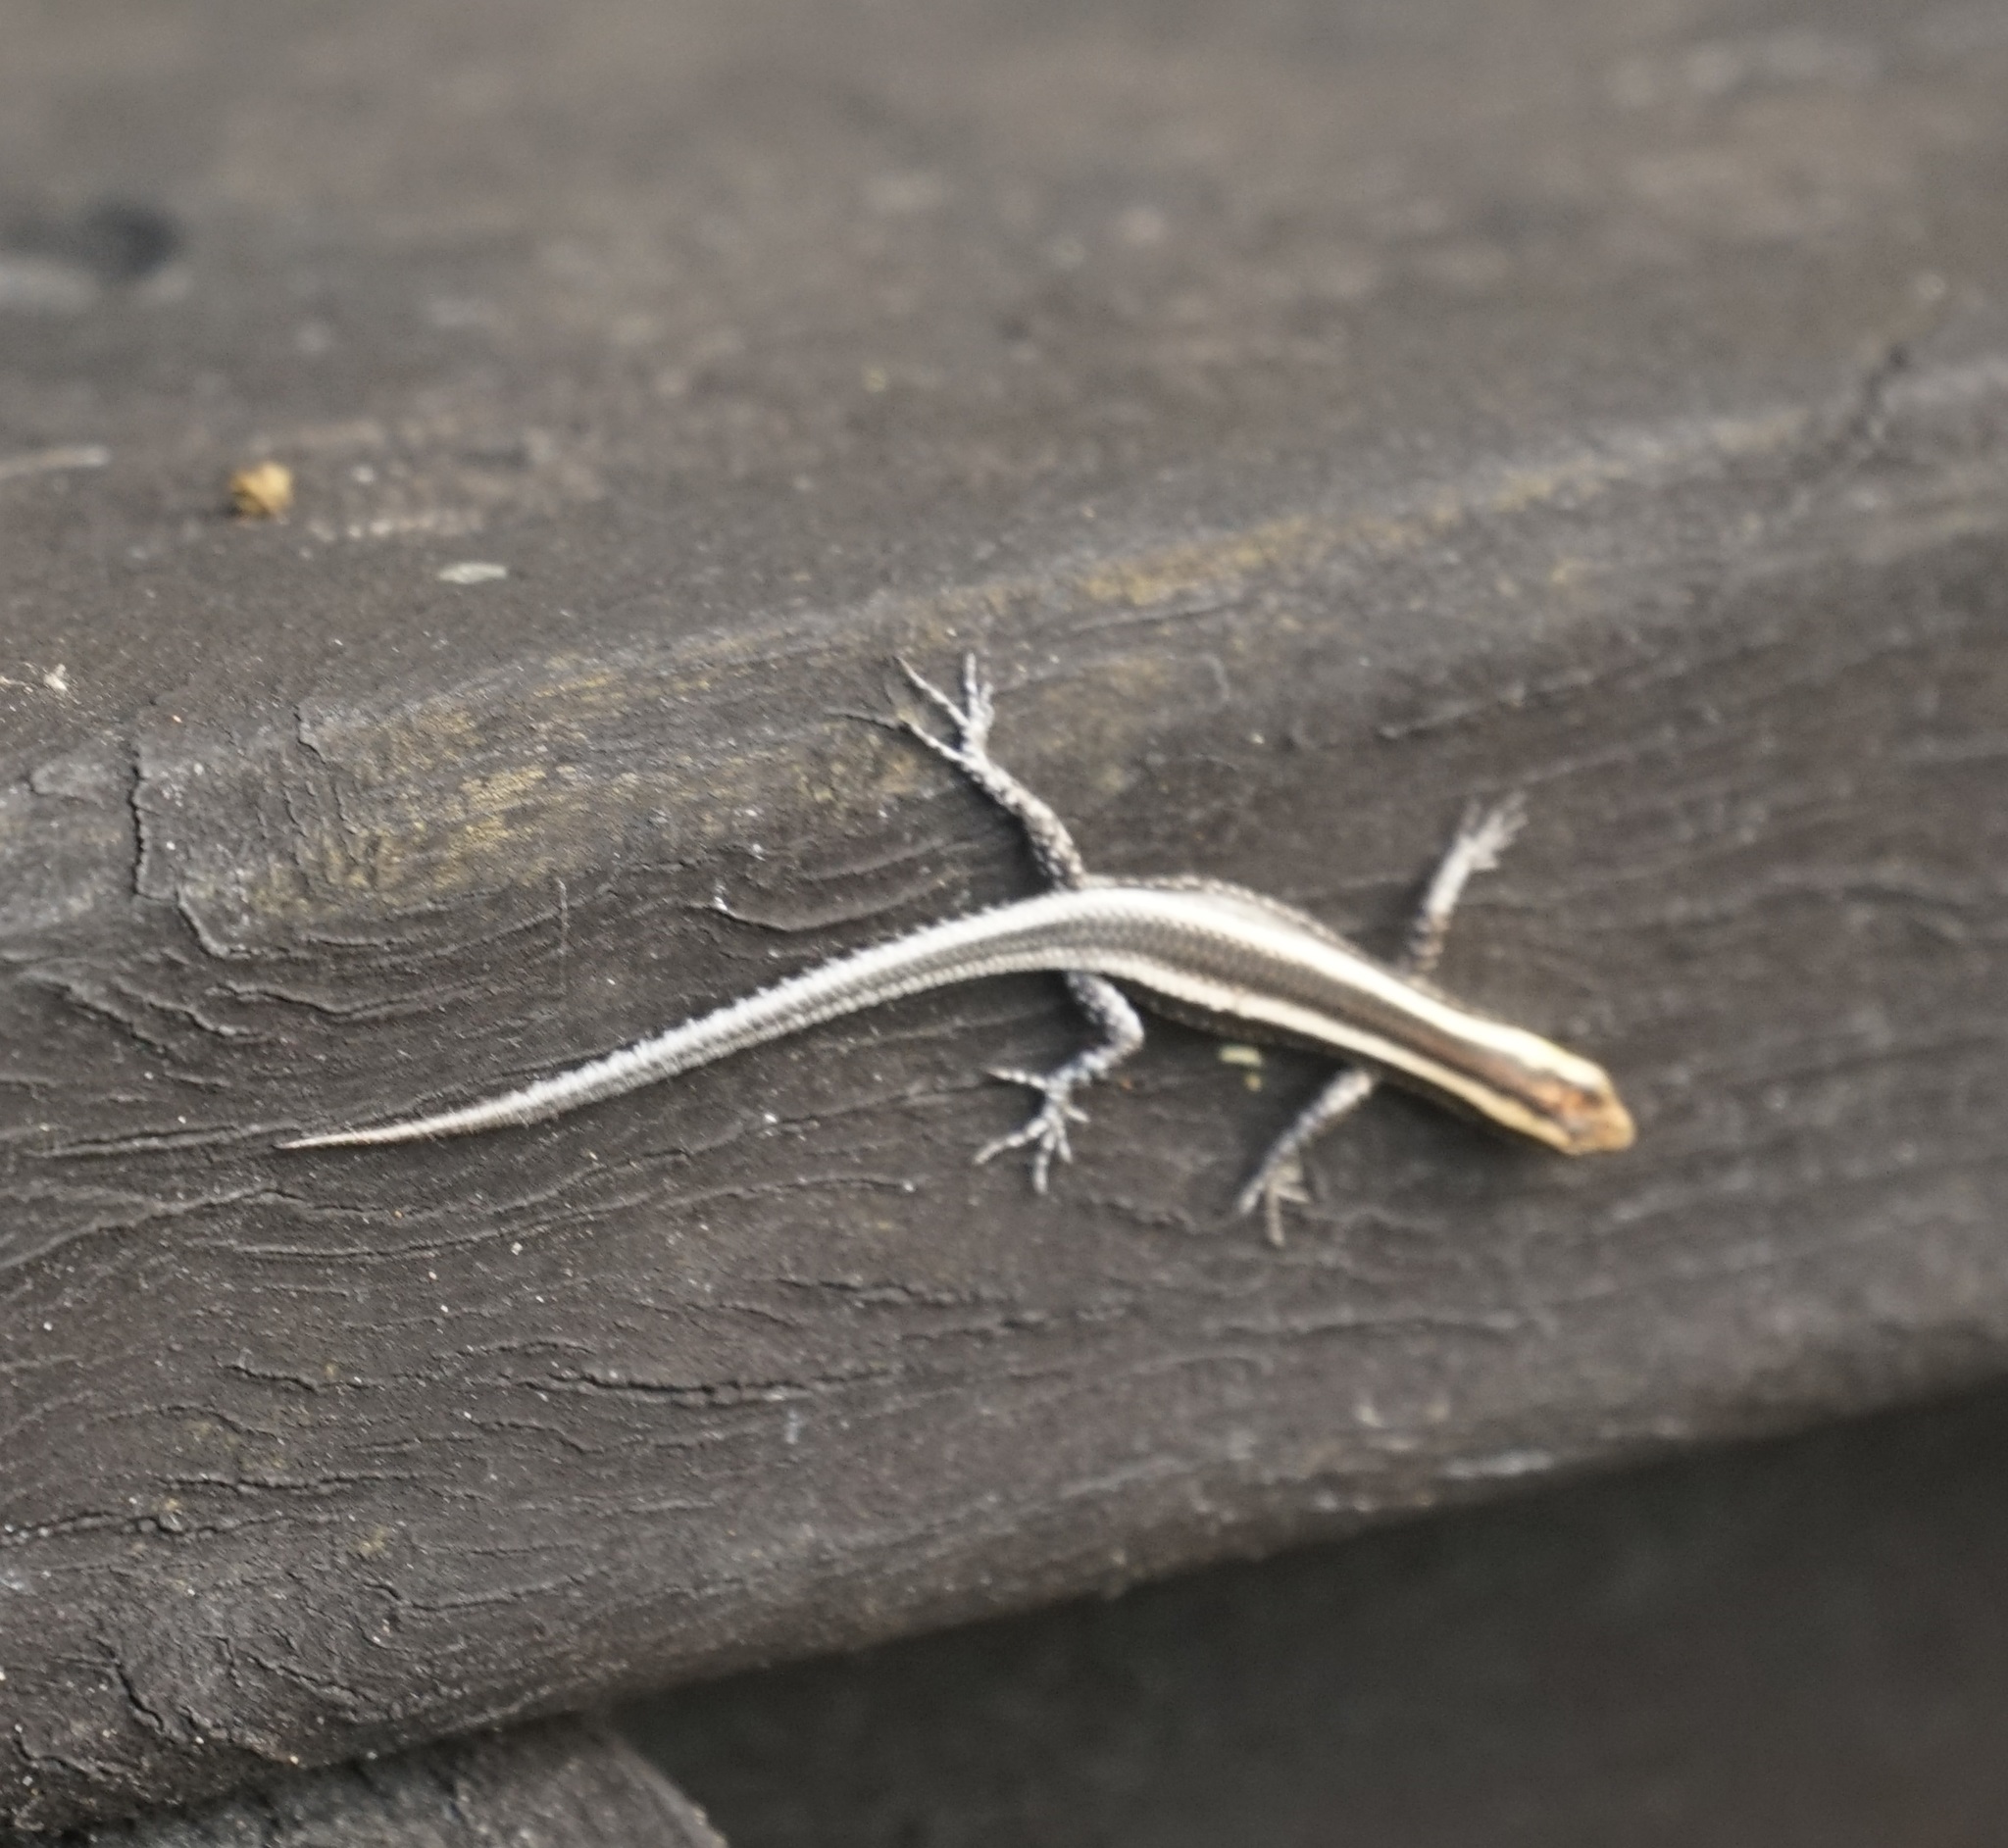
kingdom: Animalia
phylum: Chordata
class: Squamata
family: Scincidae
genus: Cryptoblepharus
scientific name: Cryptoblepharus pulcher
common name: Elegant snake-eyed skink
